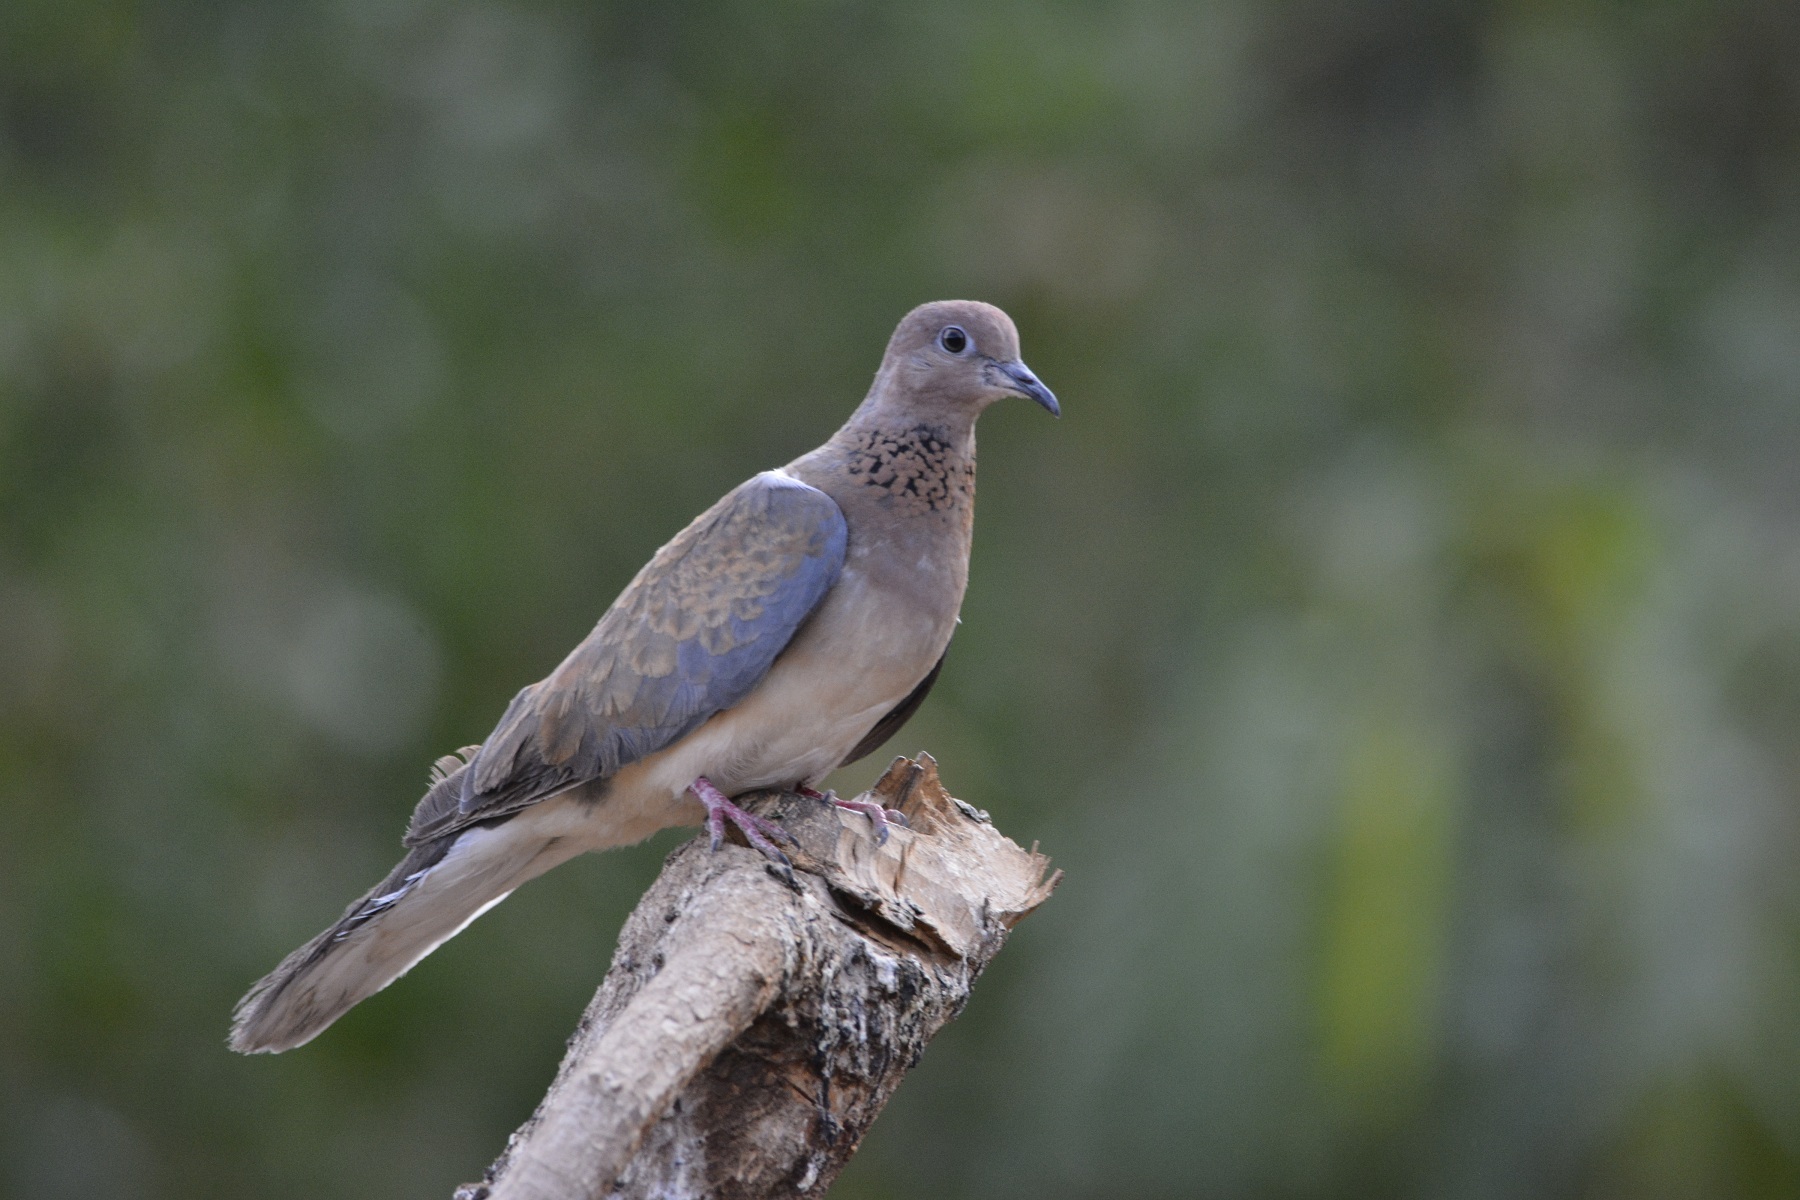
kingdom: Animalia
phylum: Chordata
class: Aves
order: Columbiformes
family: Columbidae
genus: Spilopelia
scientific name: Spilopelia senegalensis
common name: Laughing dove
